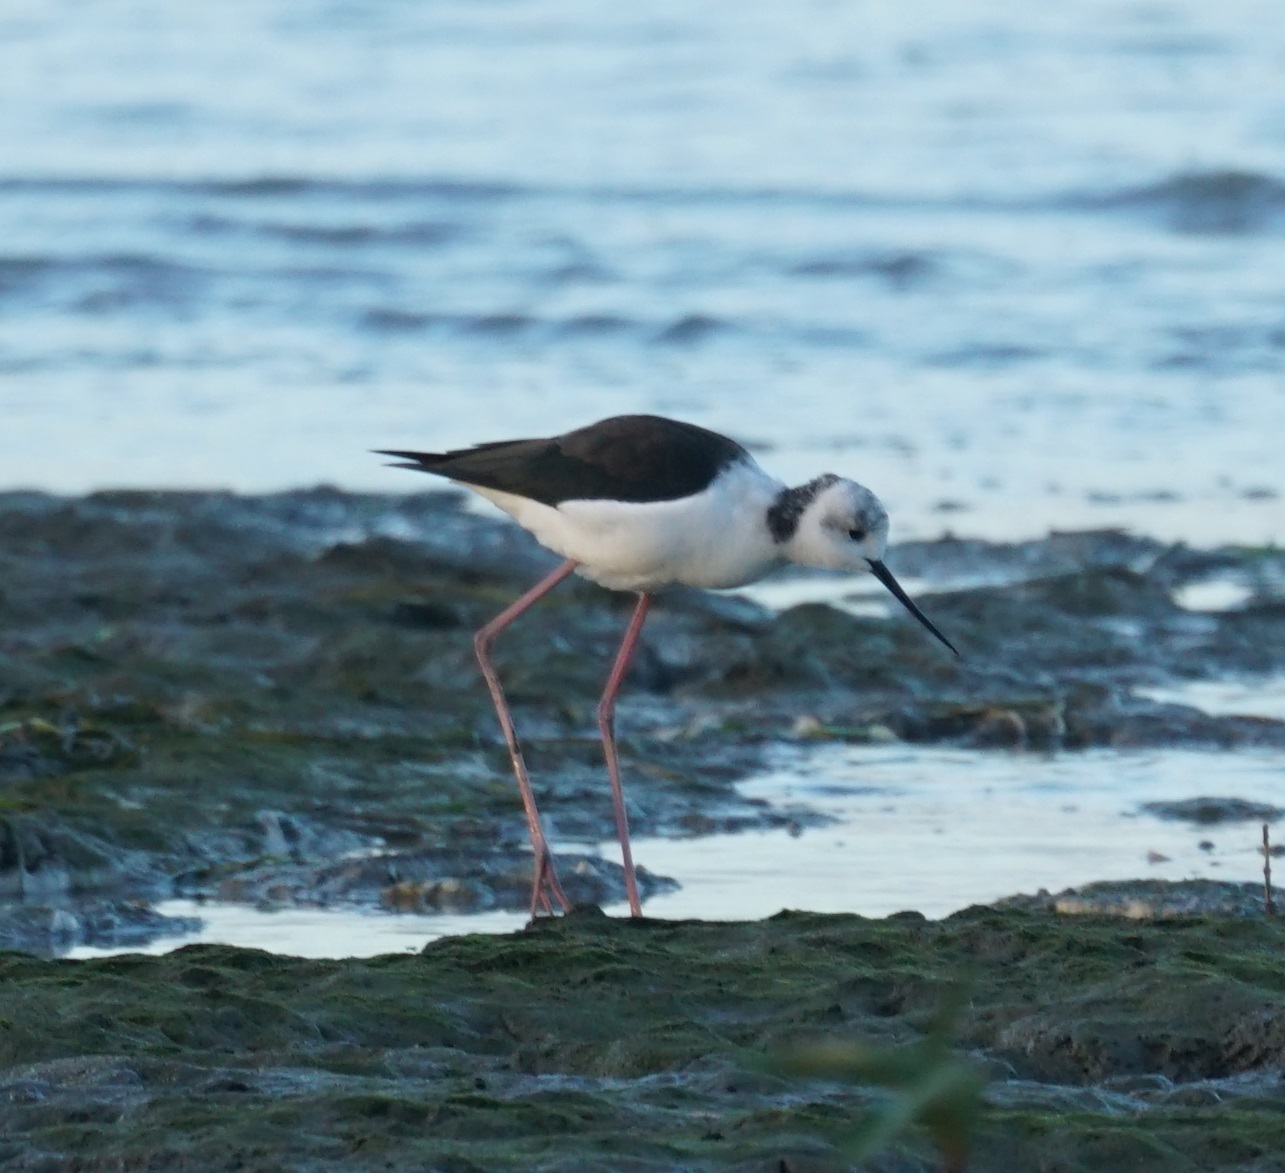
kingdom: Animalia
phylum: Chordata
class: Aves
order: Charadriiformes
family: Recurvirostridae
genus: Himantopus
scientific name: Himantopus leucocephalus
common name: White-headed stilt
